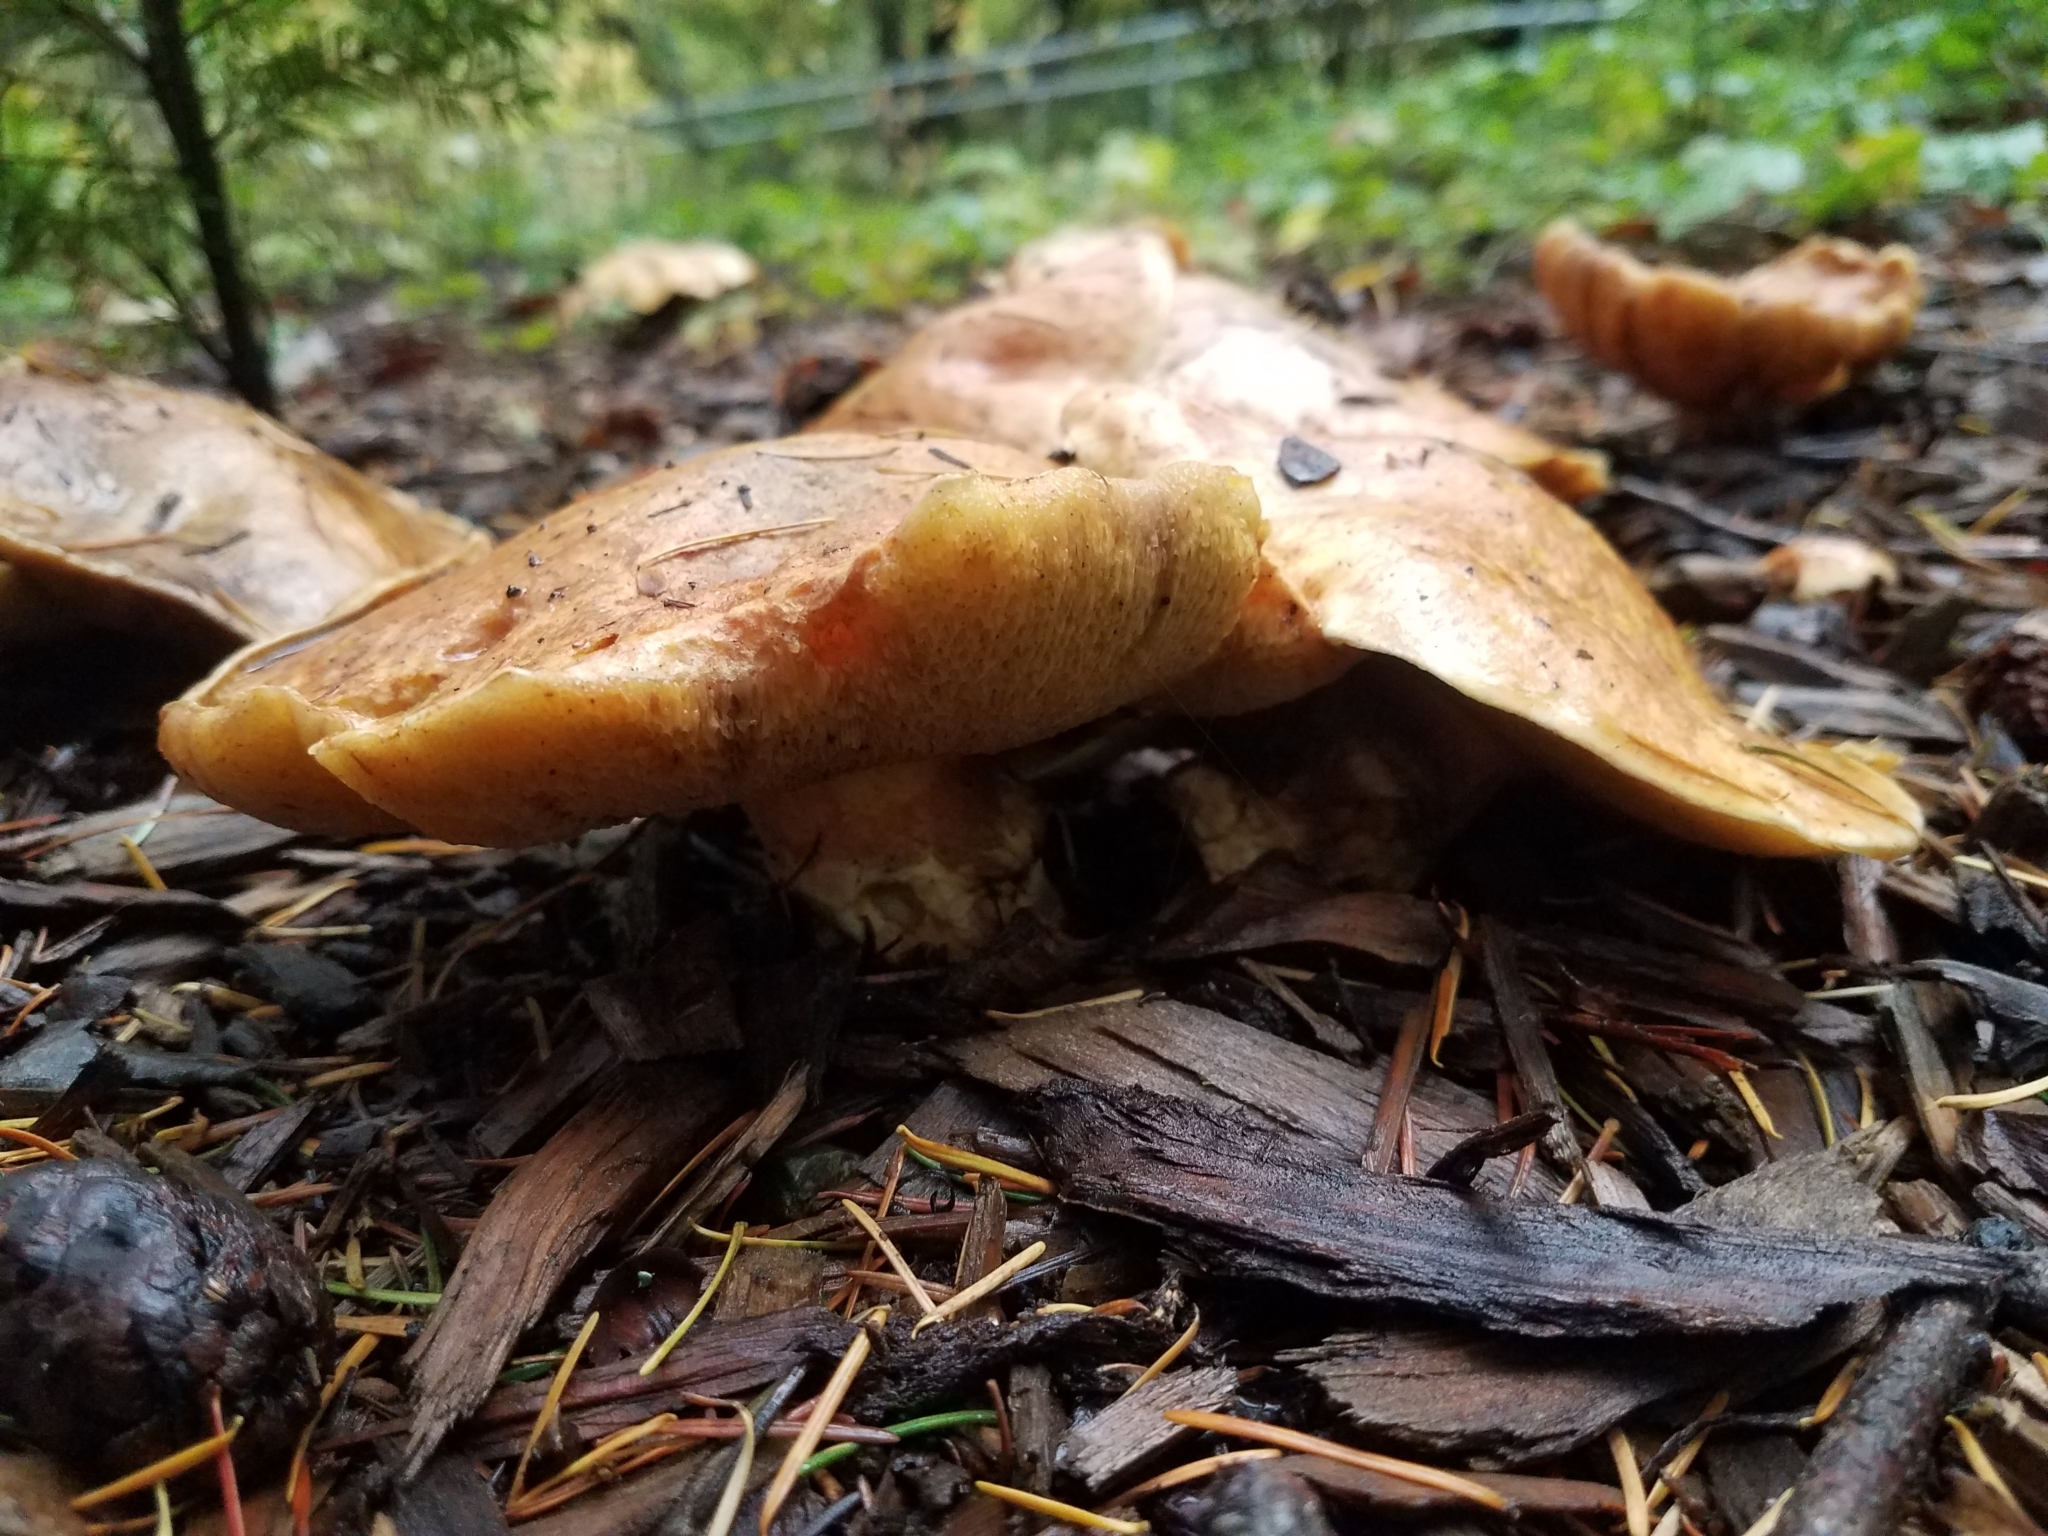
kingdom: Fungi
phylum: Basidiomycota
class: Agaricomycetes
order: Boletales
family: Suillaceae
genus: Suillus
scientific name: Suillus caerulescens
